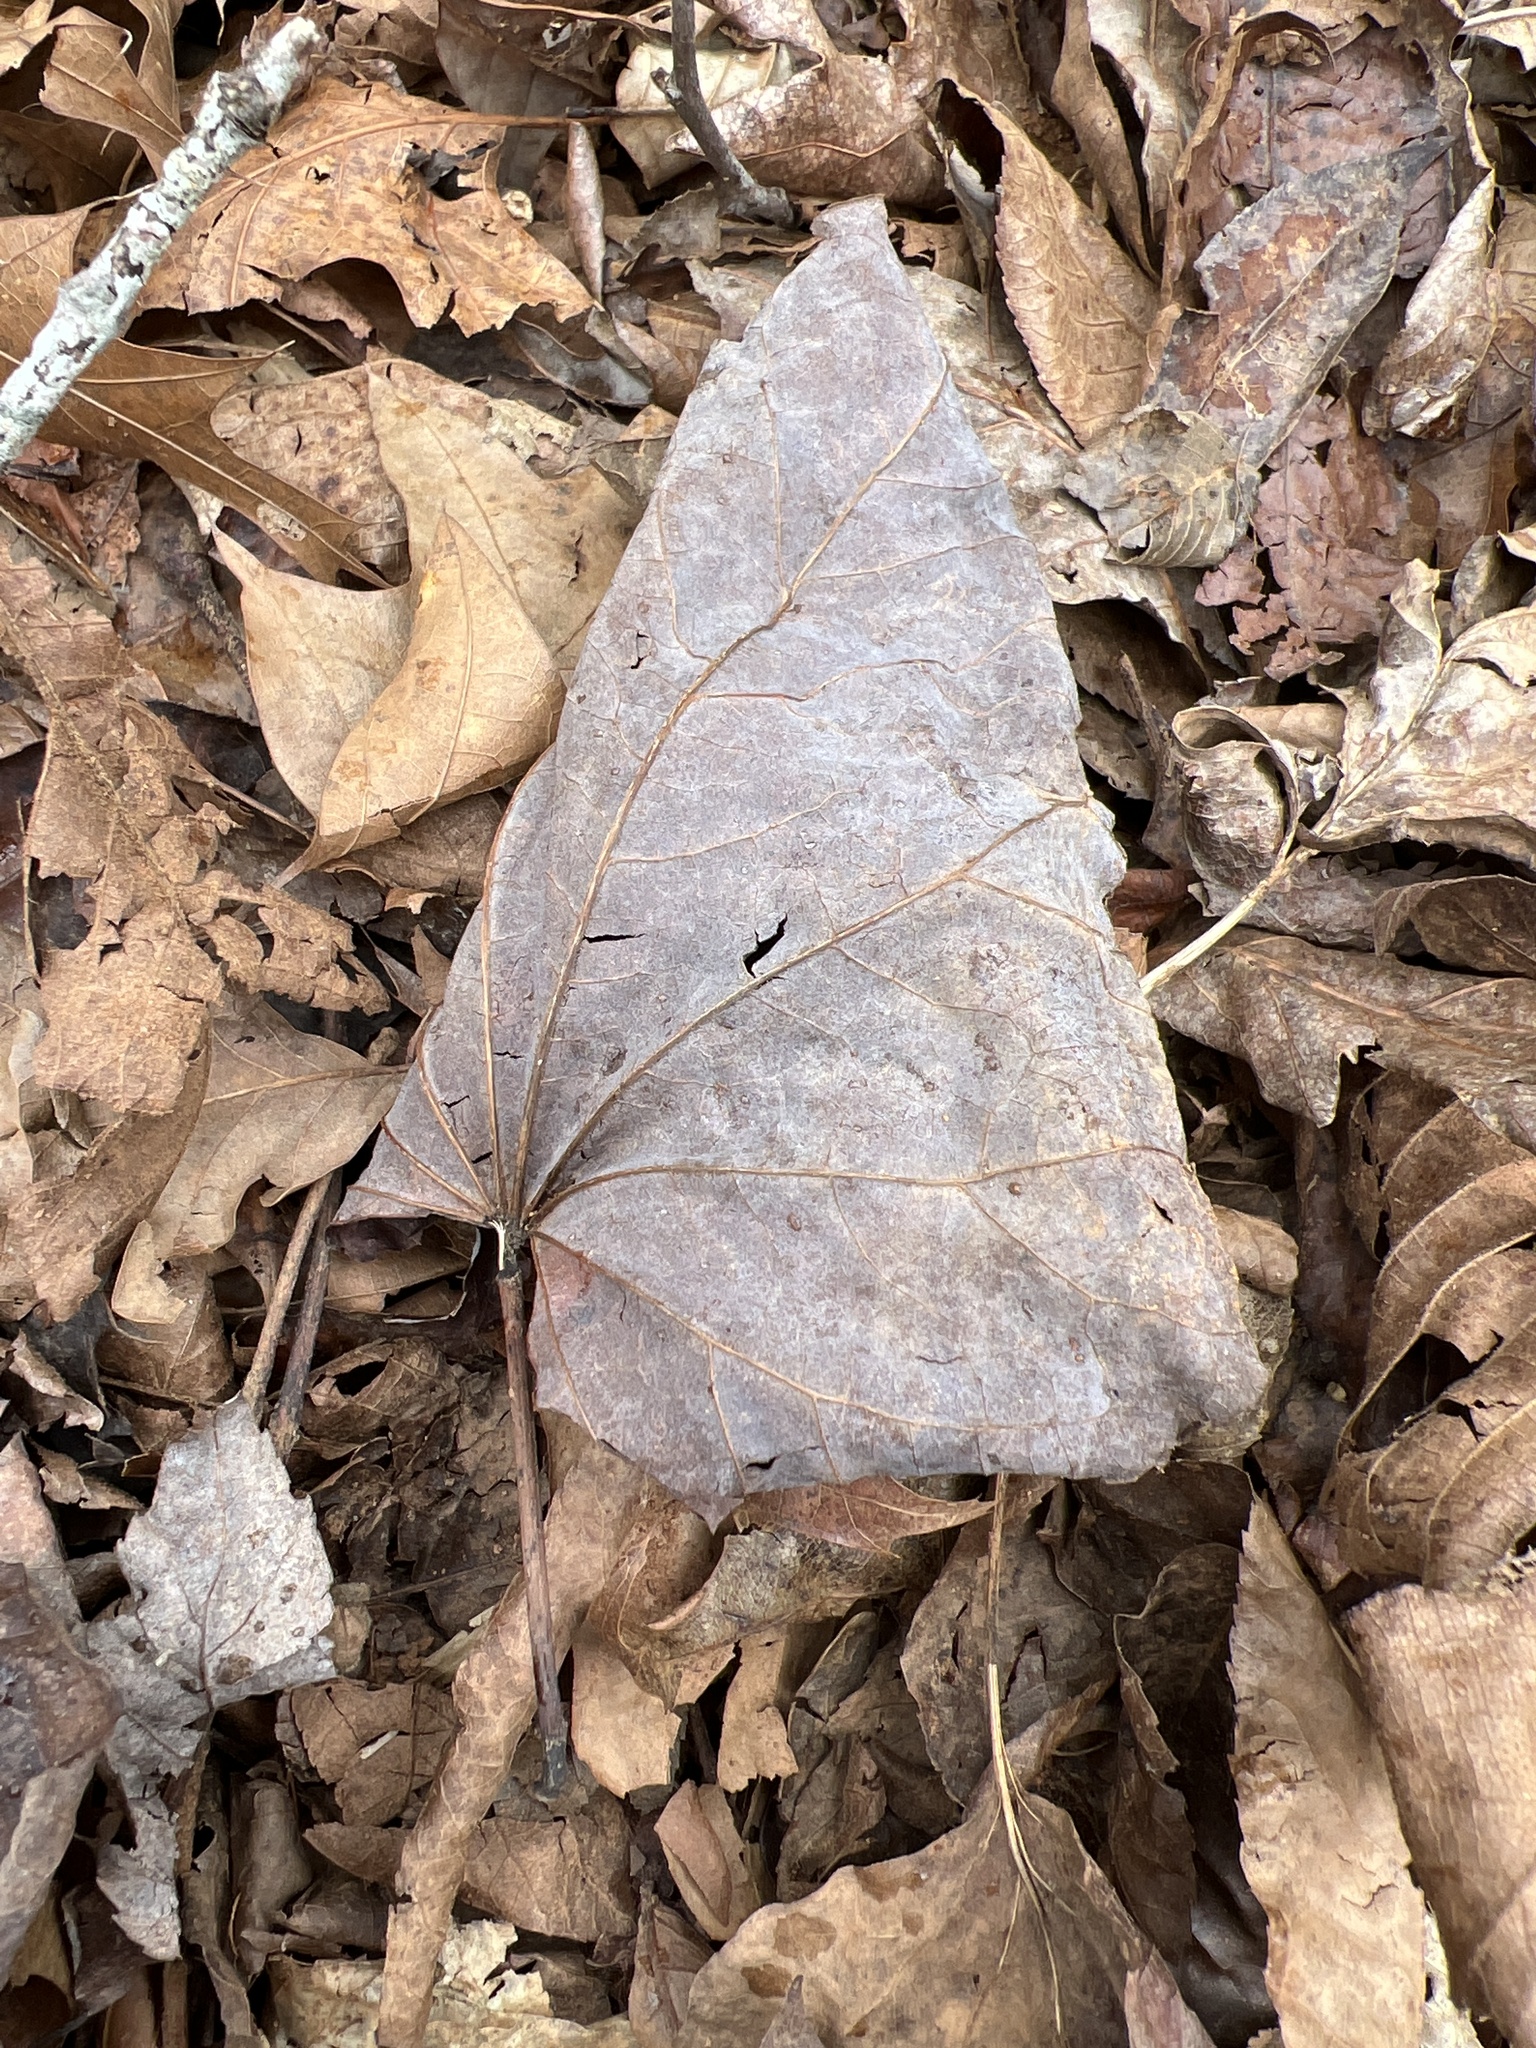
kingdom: Plantae
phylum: Tracheophyta
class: Magnoliopsida
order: Fabales
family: Fabaceae
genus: Cercis
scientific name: Cercis canadensis
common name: Eastern redbud
